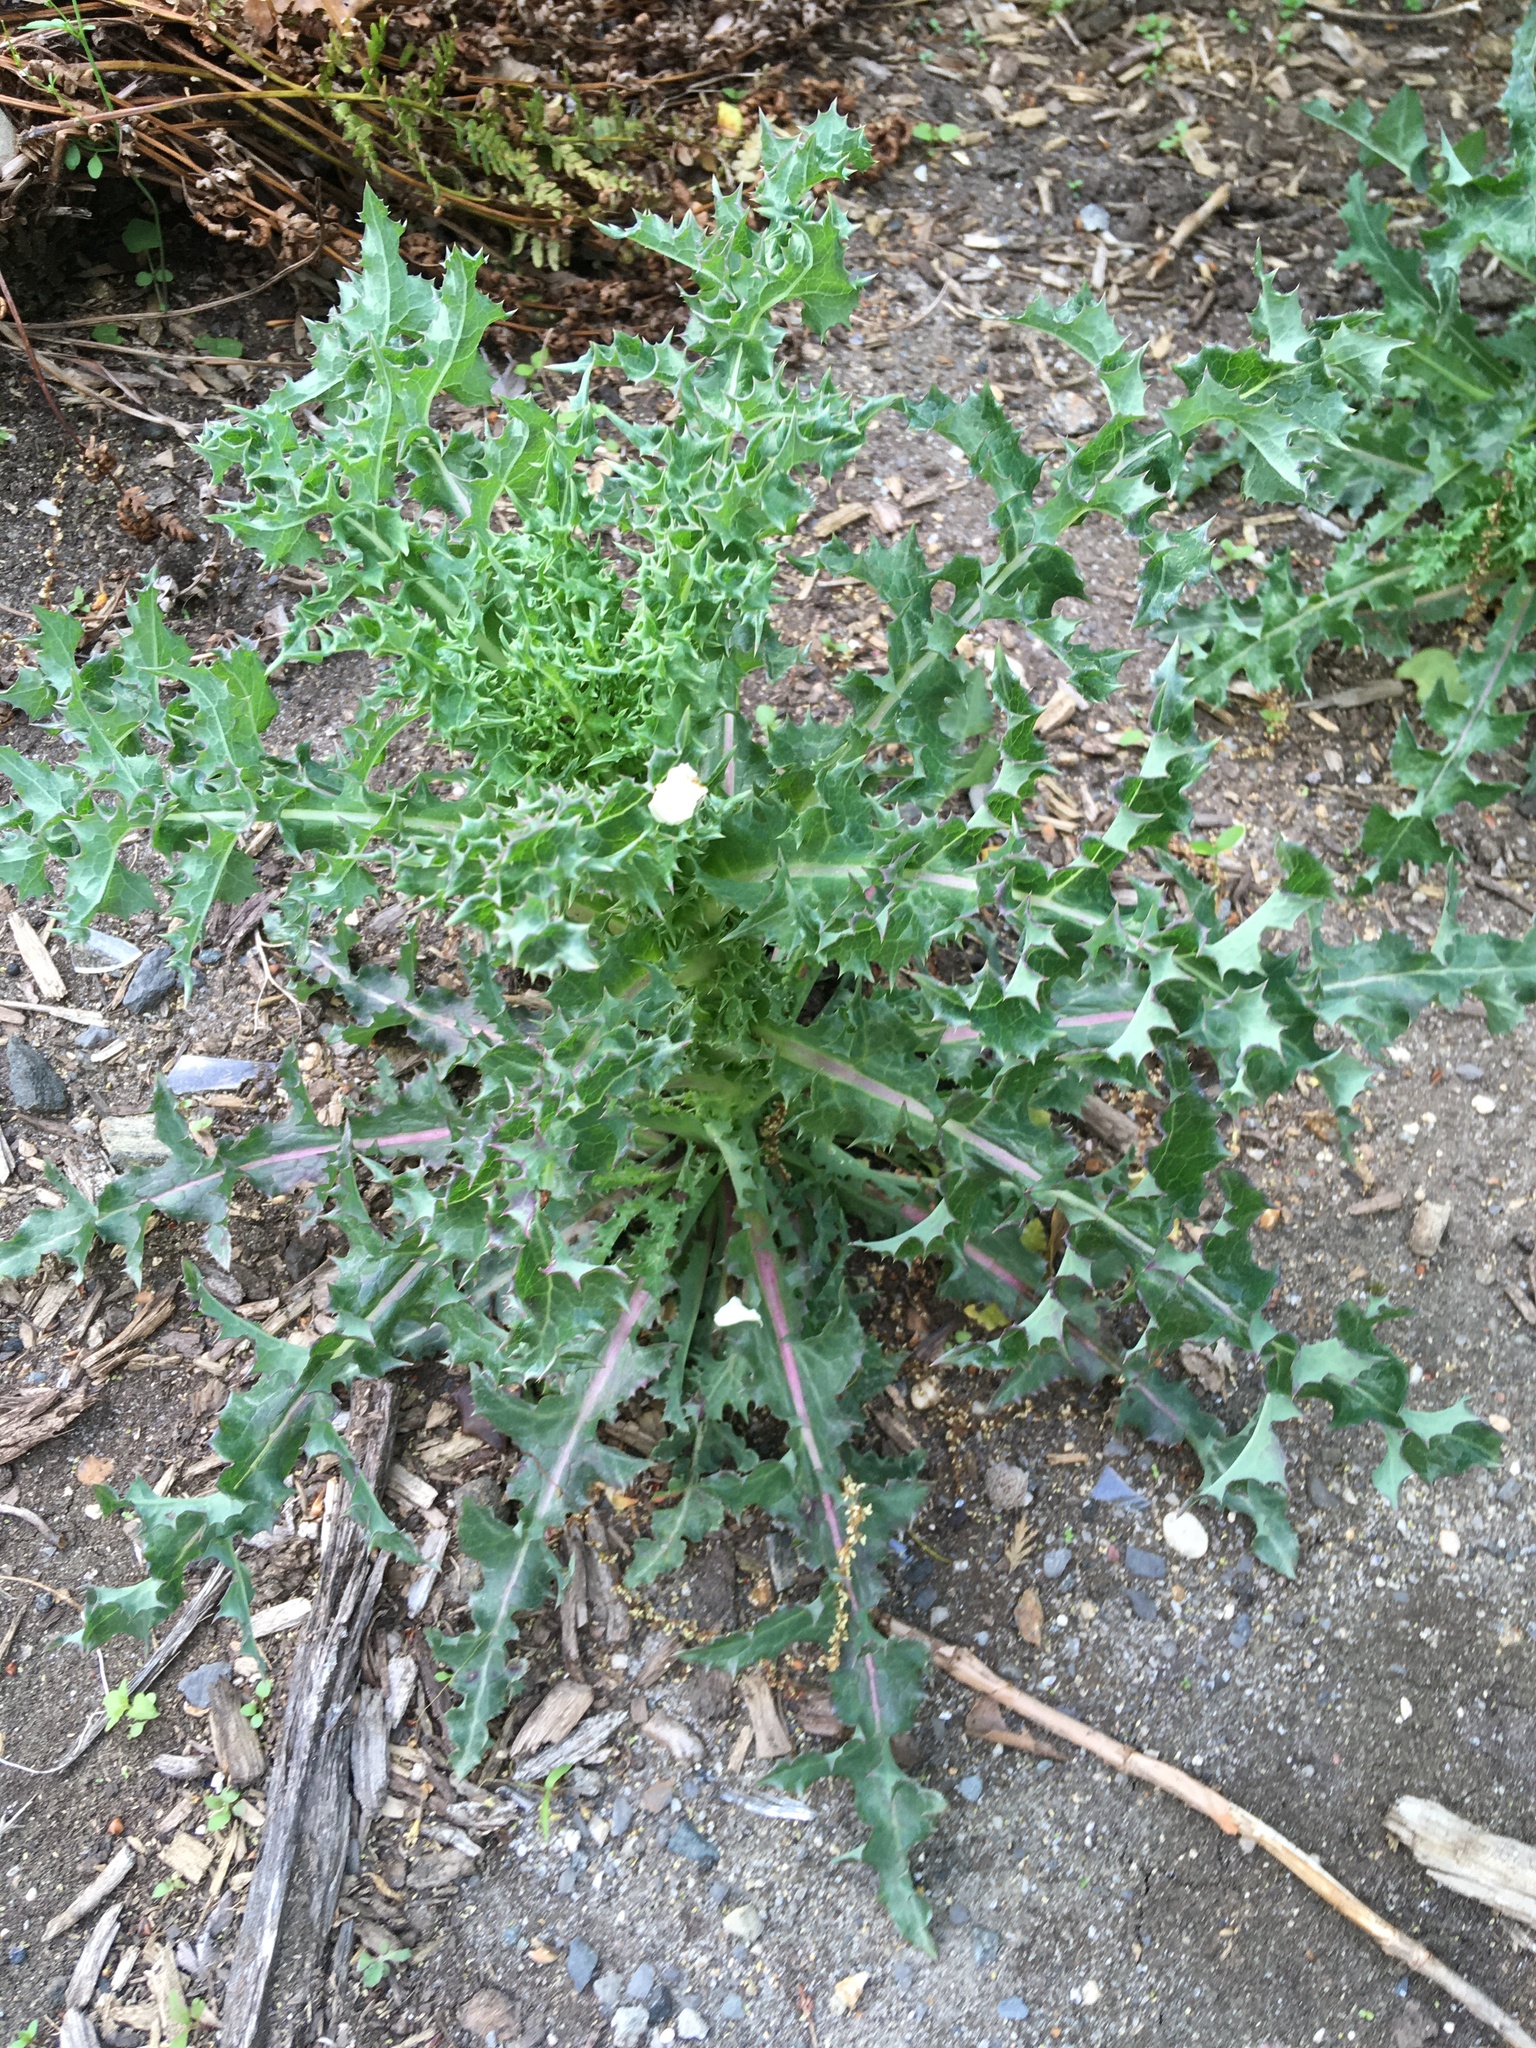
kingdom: Plantae
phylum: Tracheophyta
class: Magnoliopsida
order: Asterales
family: Asteraceae
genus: Sonchus
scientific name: Sonchus asper
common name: Prickly sow-thistle
